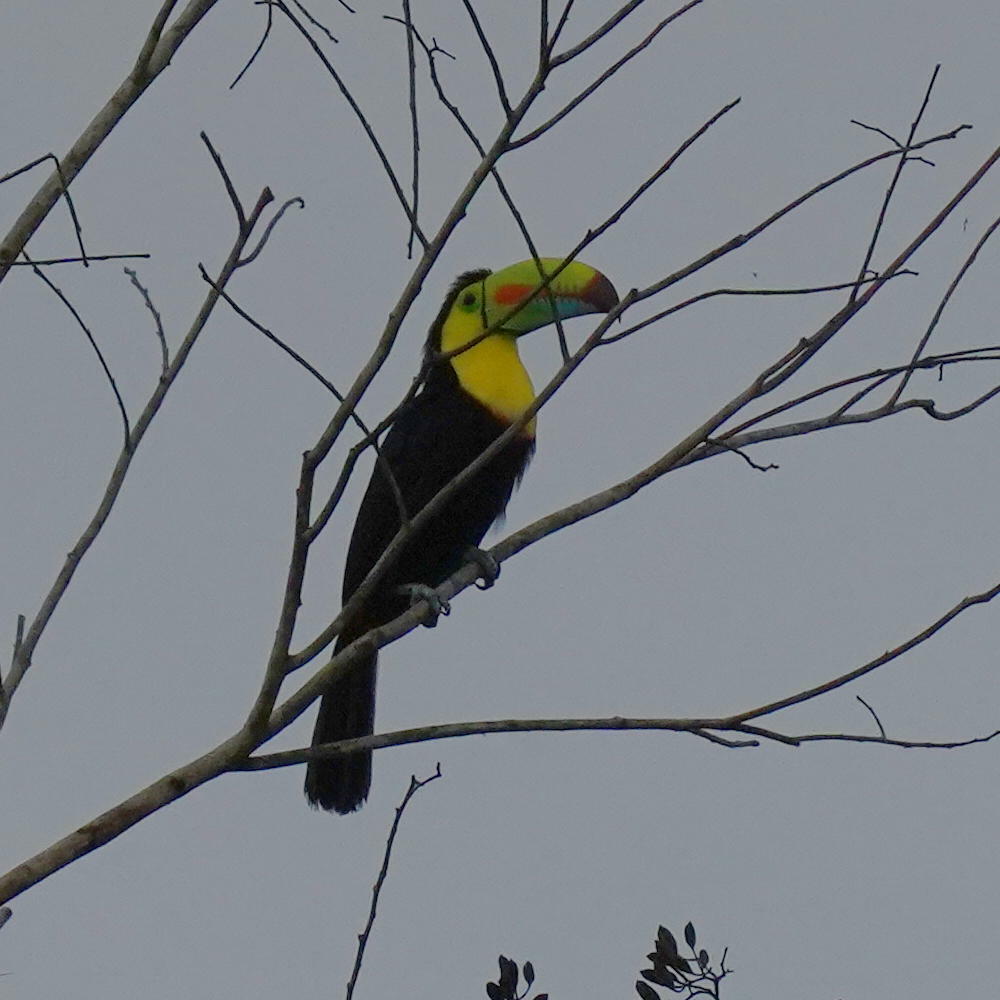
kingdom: Animalia
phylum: Chordata
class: Aves
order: Piciformes
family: Ramphastidae
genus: Ramphastos
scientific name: Ramphastos sulfuratus
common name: Keel-billed toucan
